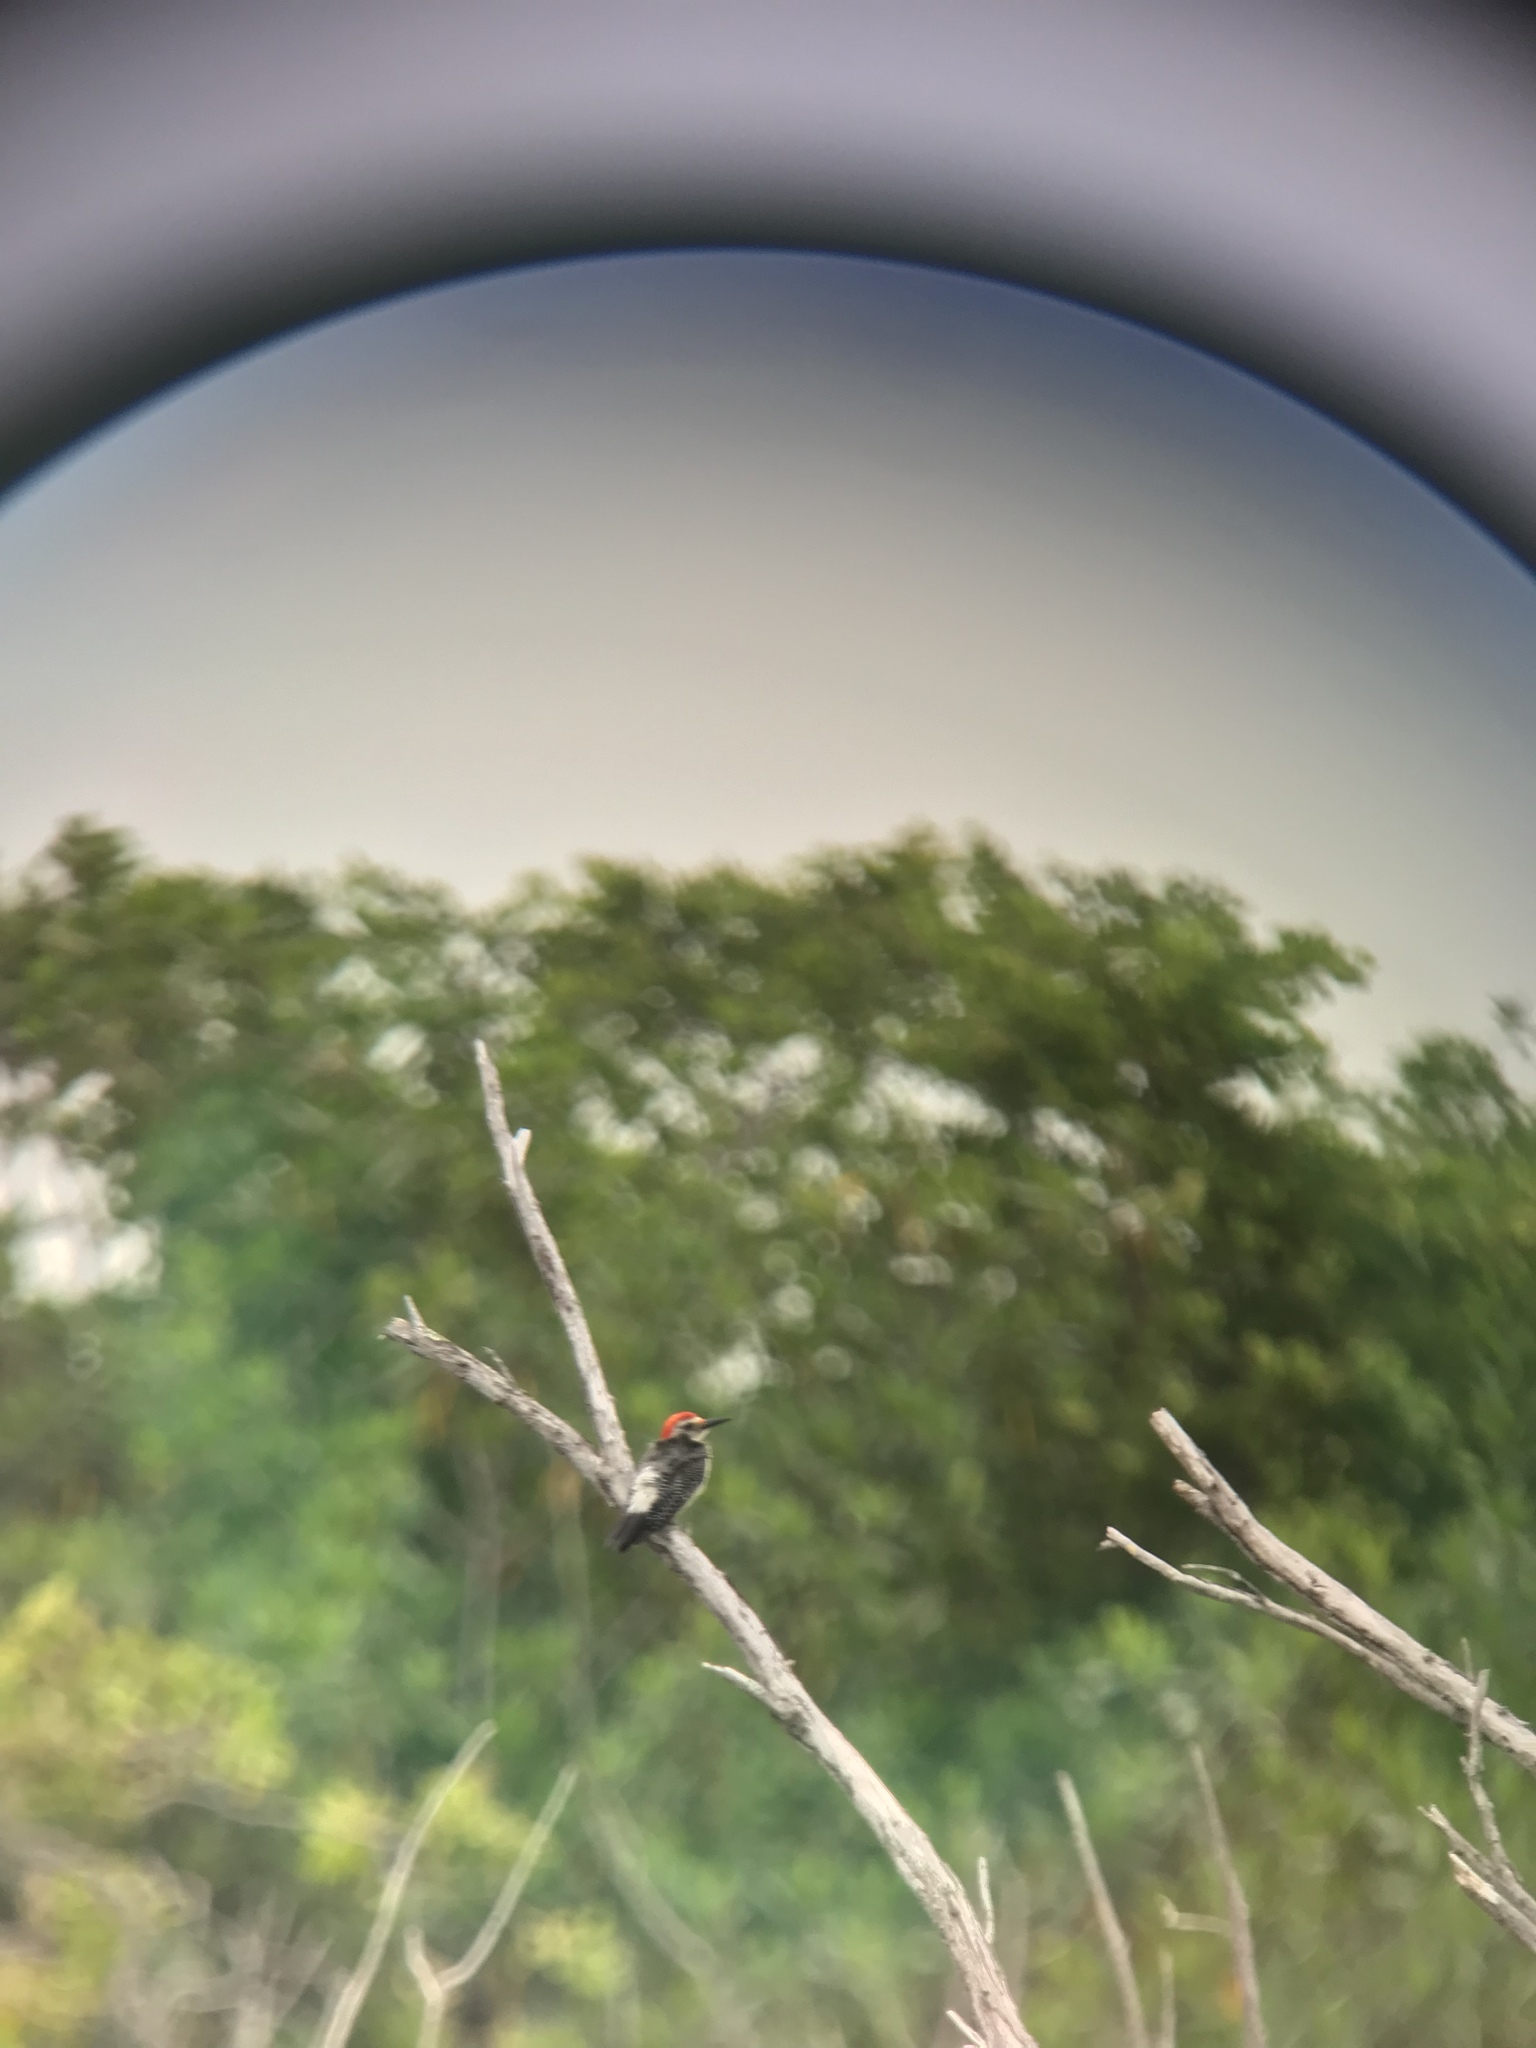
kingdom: Animalia
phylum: Chordata
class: Aves
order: Piciformes
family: Picidae
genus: Melanerpes
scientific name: Melanerpes aurifrons
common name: Golden-fronted woodpecker
